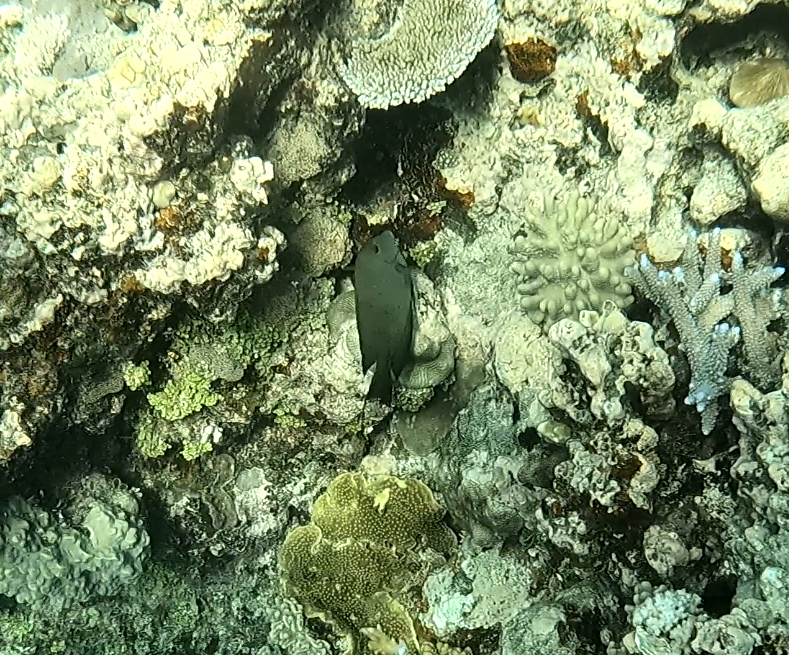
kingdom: Animalia
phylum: Chordata
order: Perciformes
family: Acanthuridae
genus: Ctenochaetus
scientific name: Ctenochaetus striatus
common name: Bristle-toothed surgeonfish
